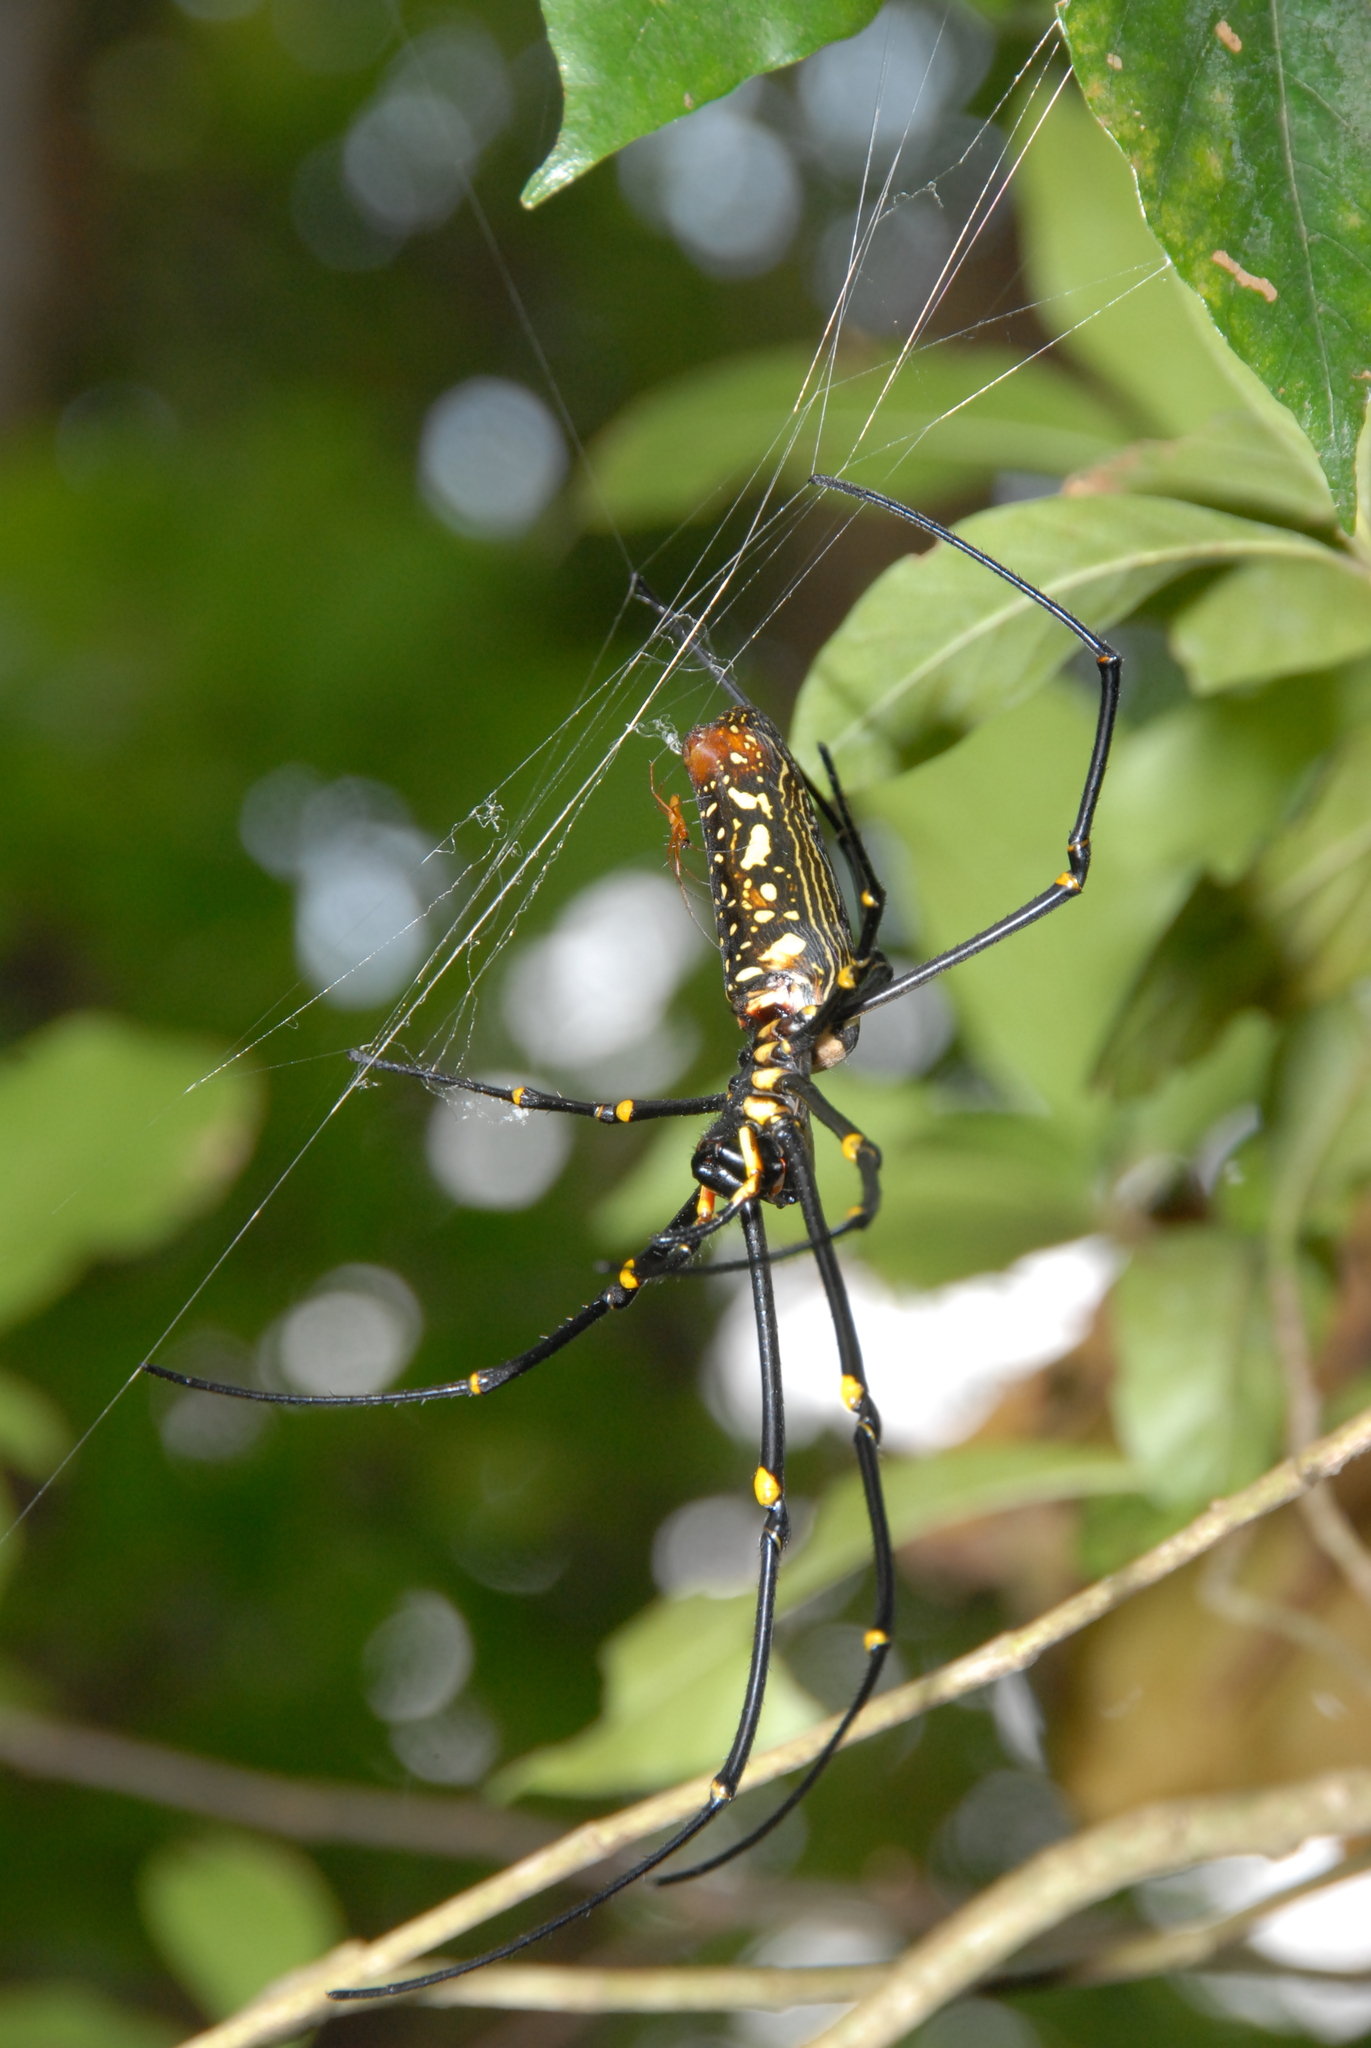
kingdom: Animalia
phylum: Arthropoda
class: Arachnida
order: Araneae
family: Araneidae
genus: Nephila
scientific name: Nephila pilipes
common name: Giant golden orb weaver
